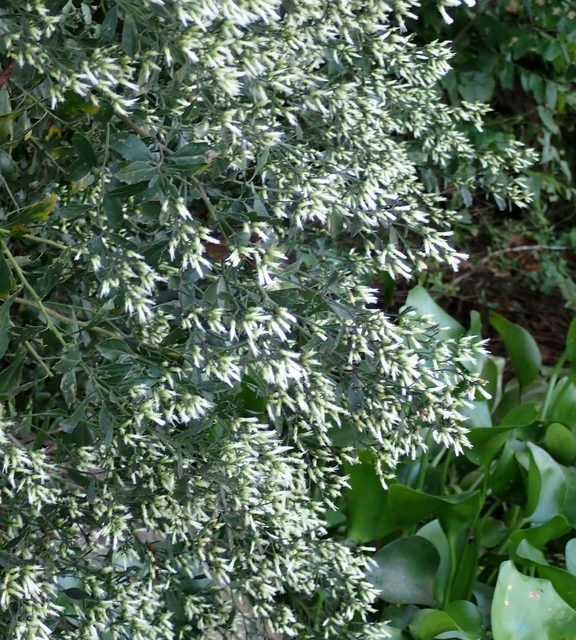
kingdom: Plantae
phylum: Tracheophyta
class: Magnoliopsida
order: Asterales
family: Asteraceae
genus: Baccharis
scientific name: Baccharis halimifolia
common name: Eastern baccharis
